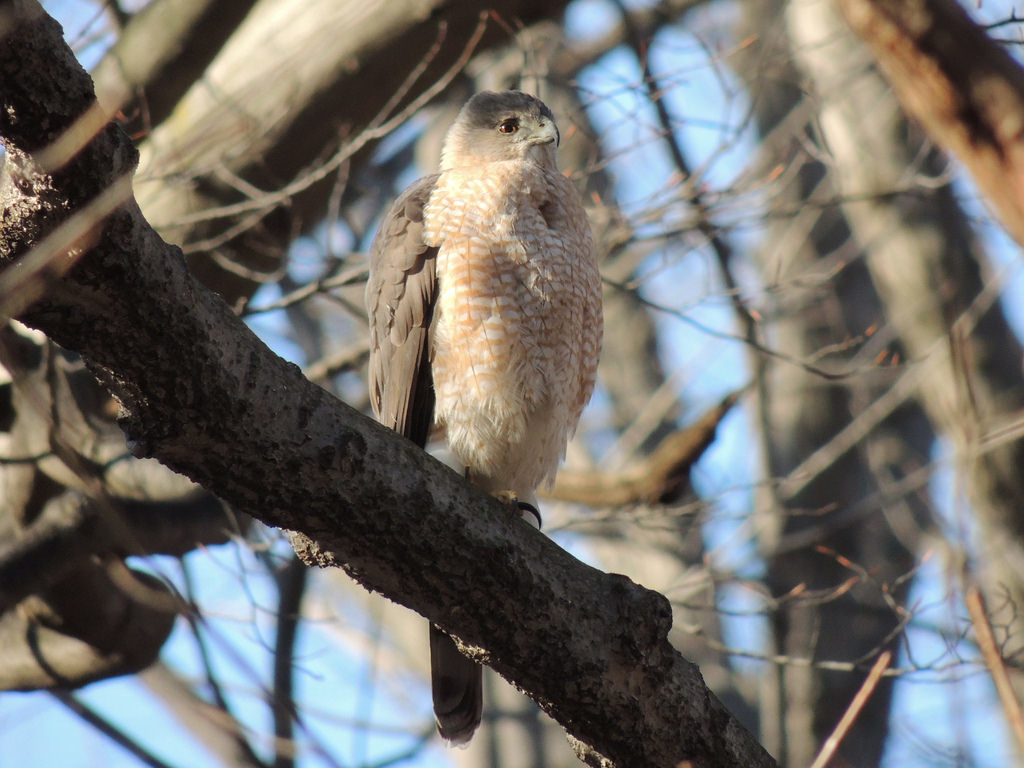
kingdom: Animalia
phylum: Chordata
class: Aves
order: Accipitriformes
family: Accipitridae
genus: Accipiter
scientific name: Accipiter cooperii
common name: Cooper's hawk
